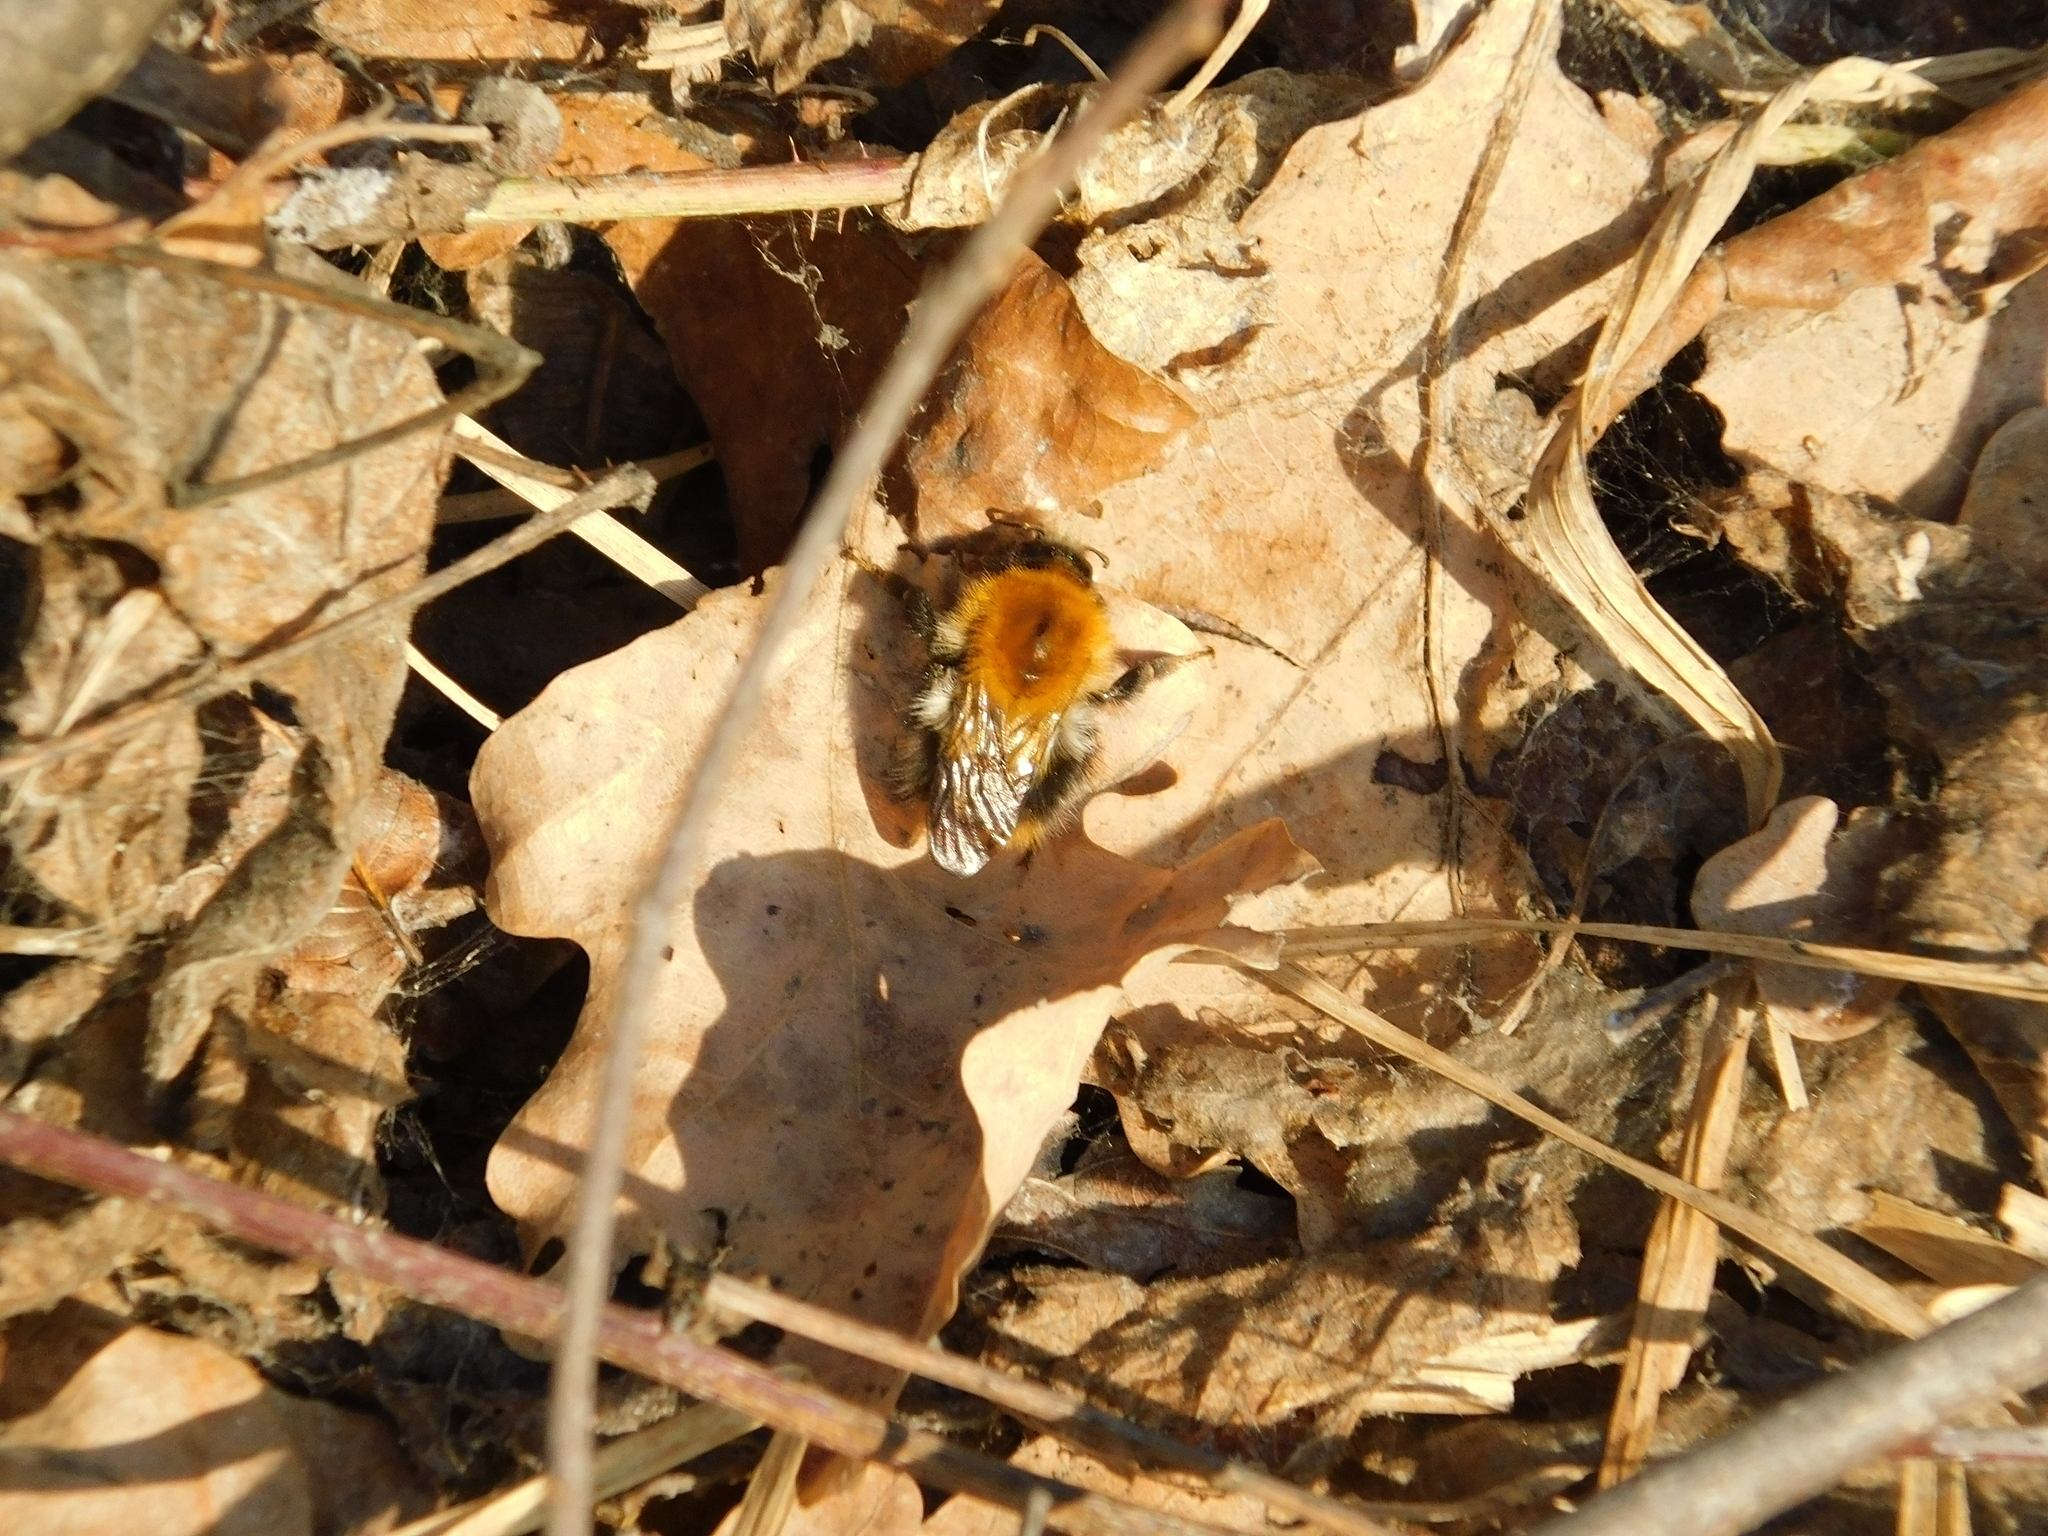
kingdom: Animalia
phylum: Arthropoda
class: Insecta
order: Hymenoptera
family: Apidae
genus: Bombus
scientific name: Bombus pascuorum
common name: Common carder bee
